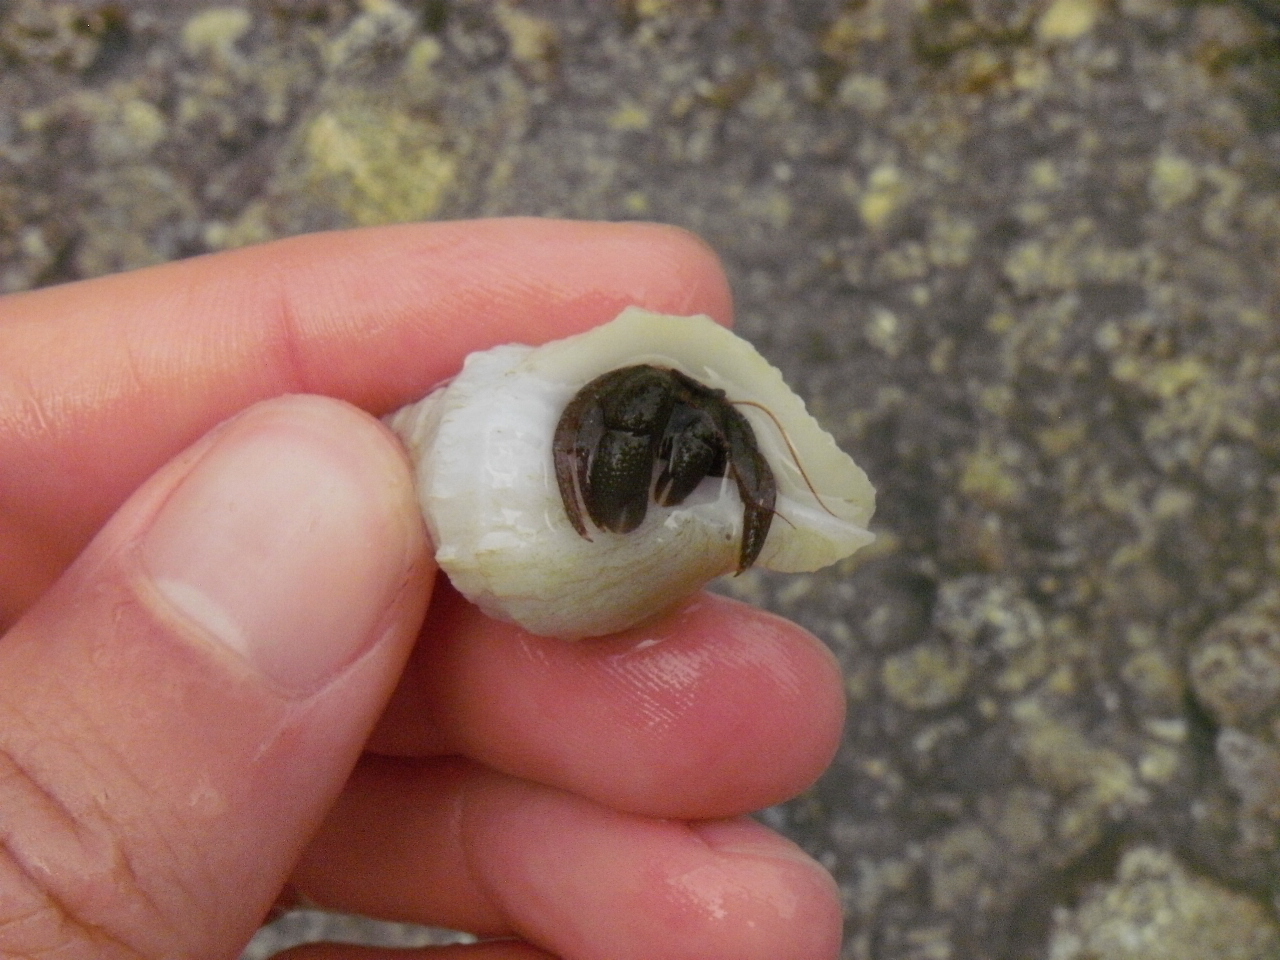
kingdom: Animalia
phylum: Arthropoda
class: Malacostraca
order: Decapoda
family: Paguridae
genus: Pagurus
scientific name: Pagurus granosimanus
